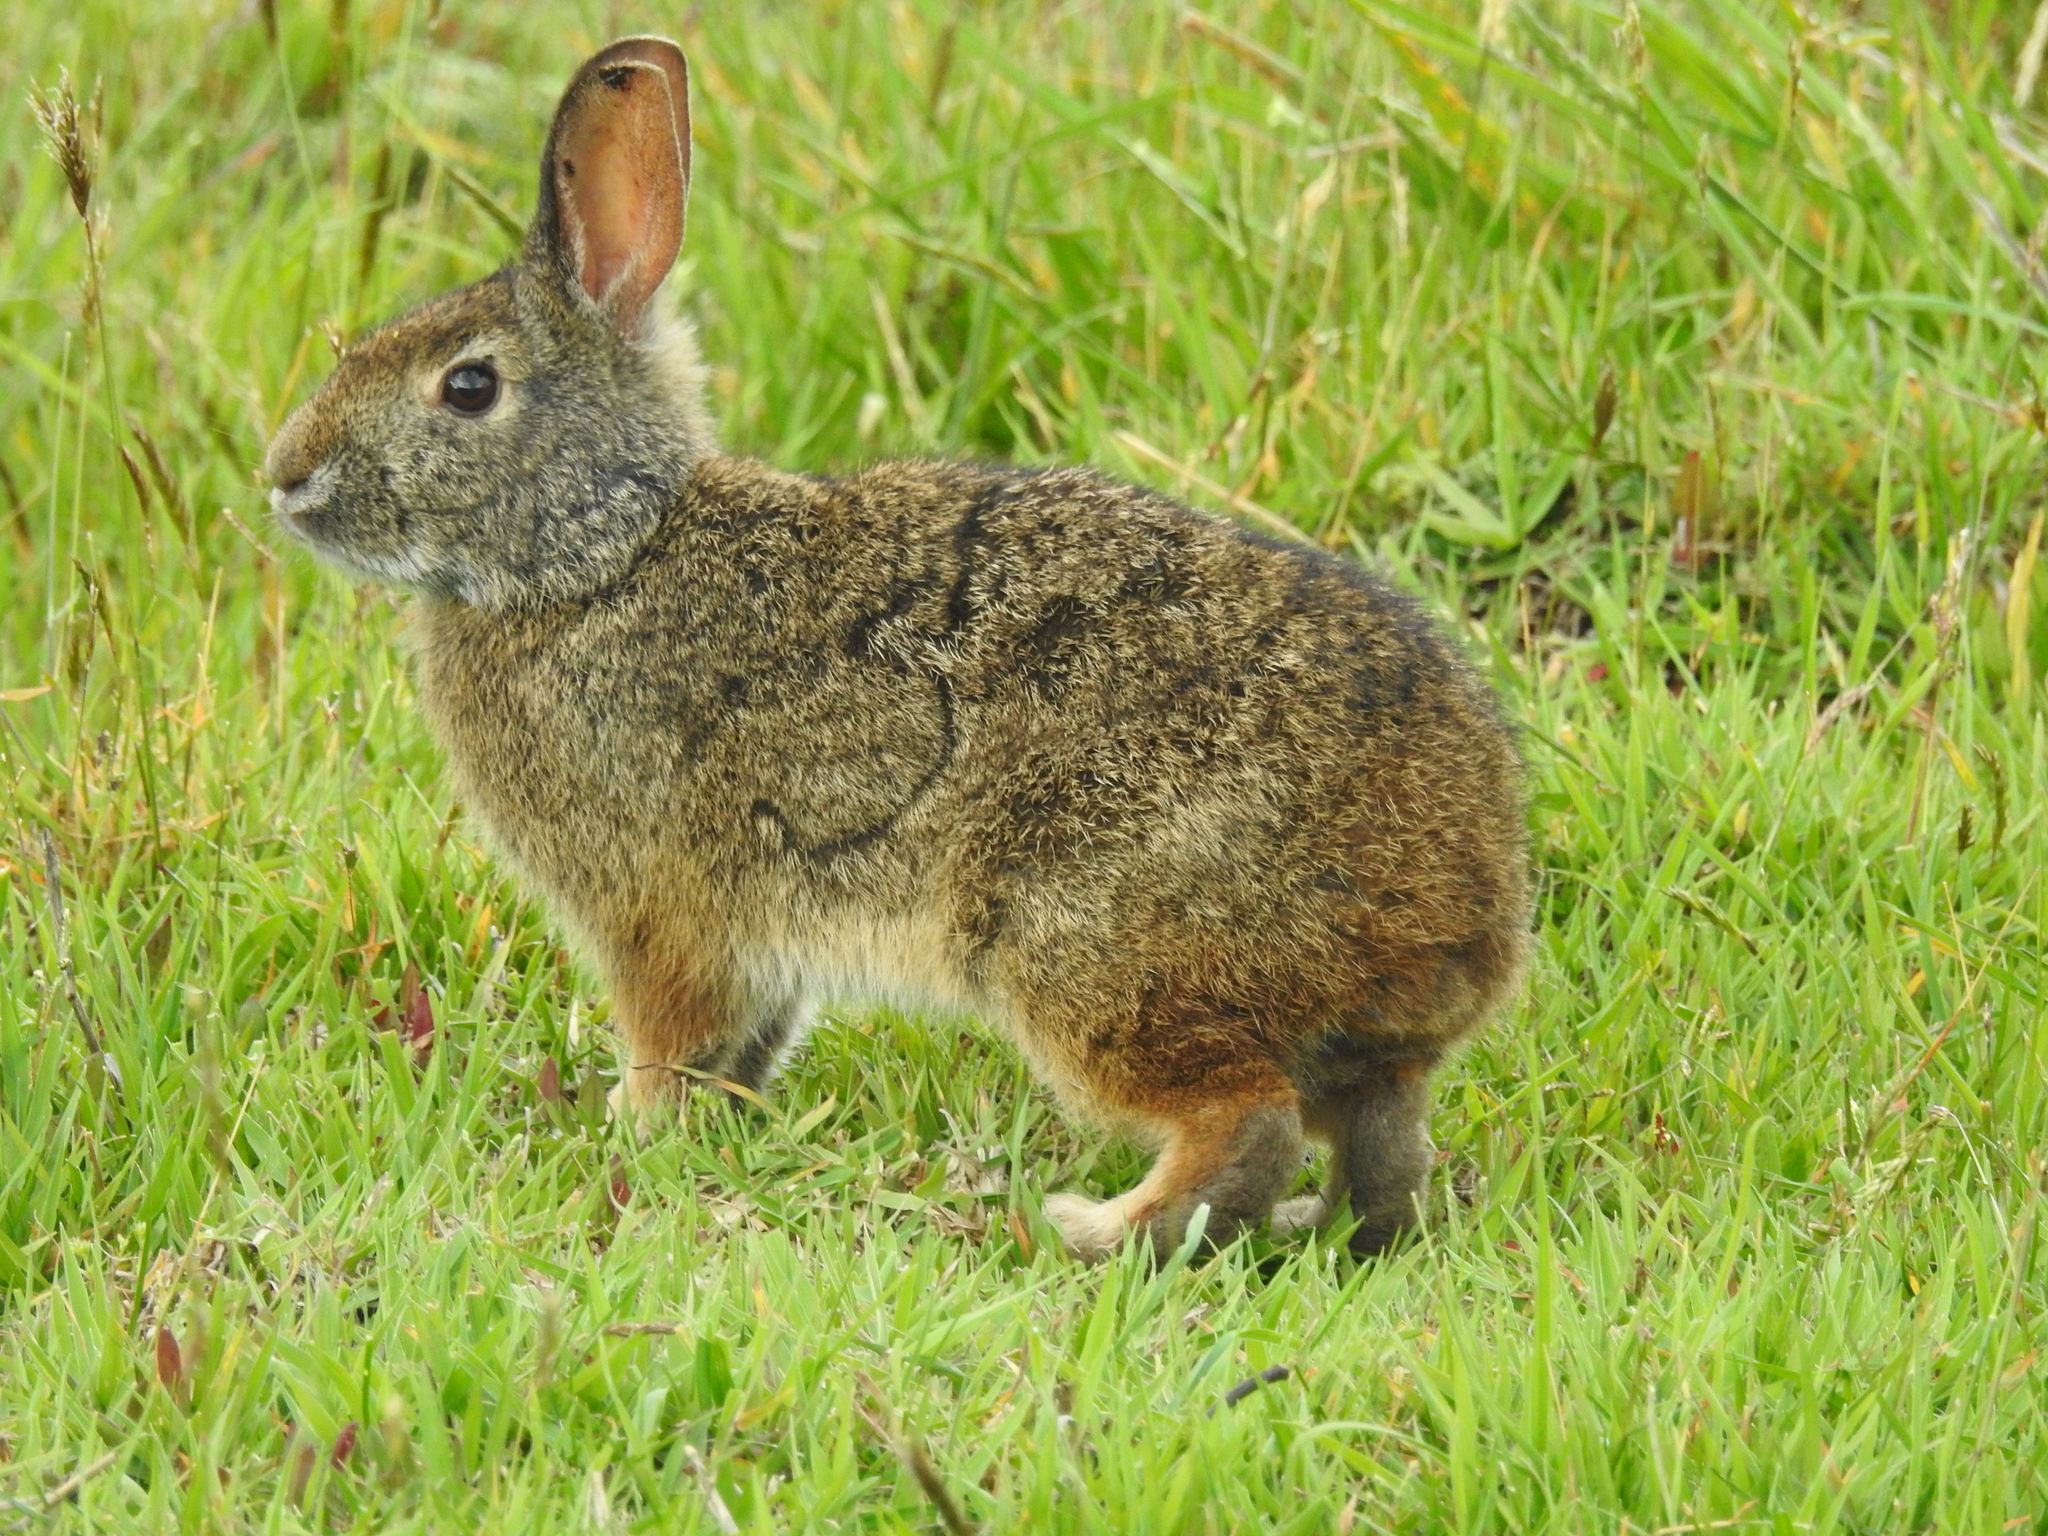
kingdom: Animalia
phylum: Chordata
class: Mammalia
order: Lagomorpha
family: Leporidae
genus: Sylvilagus
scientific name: Sylvilagus andinus
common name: Andean cottontail
